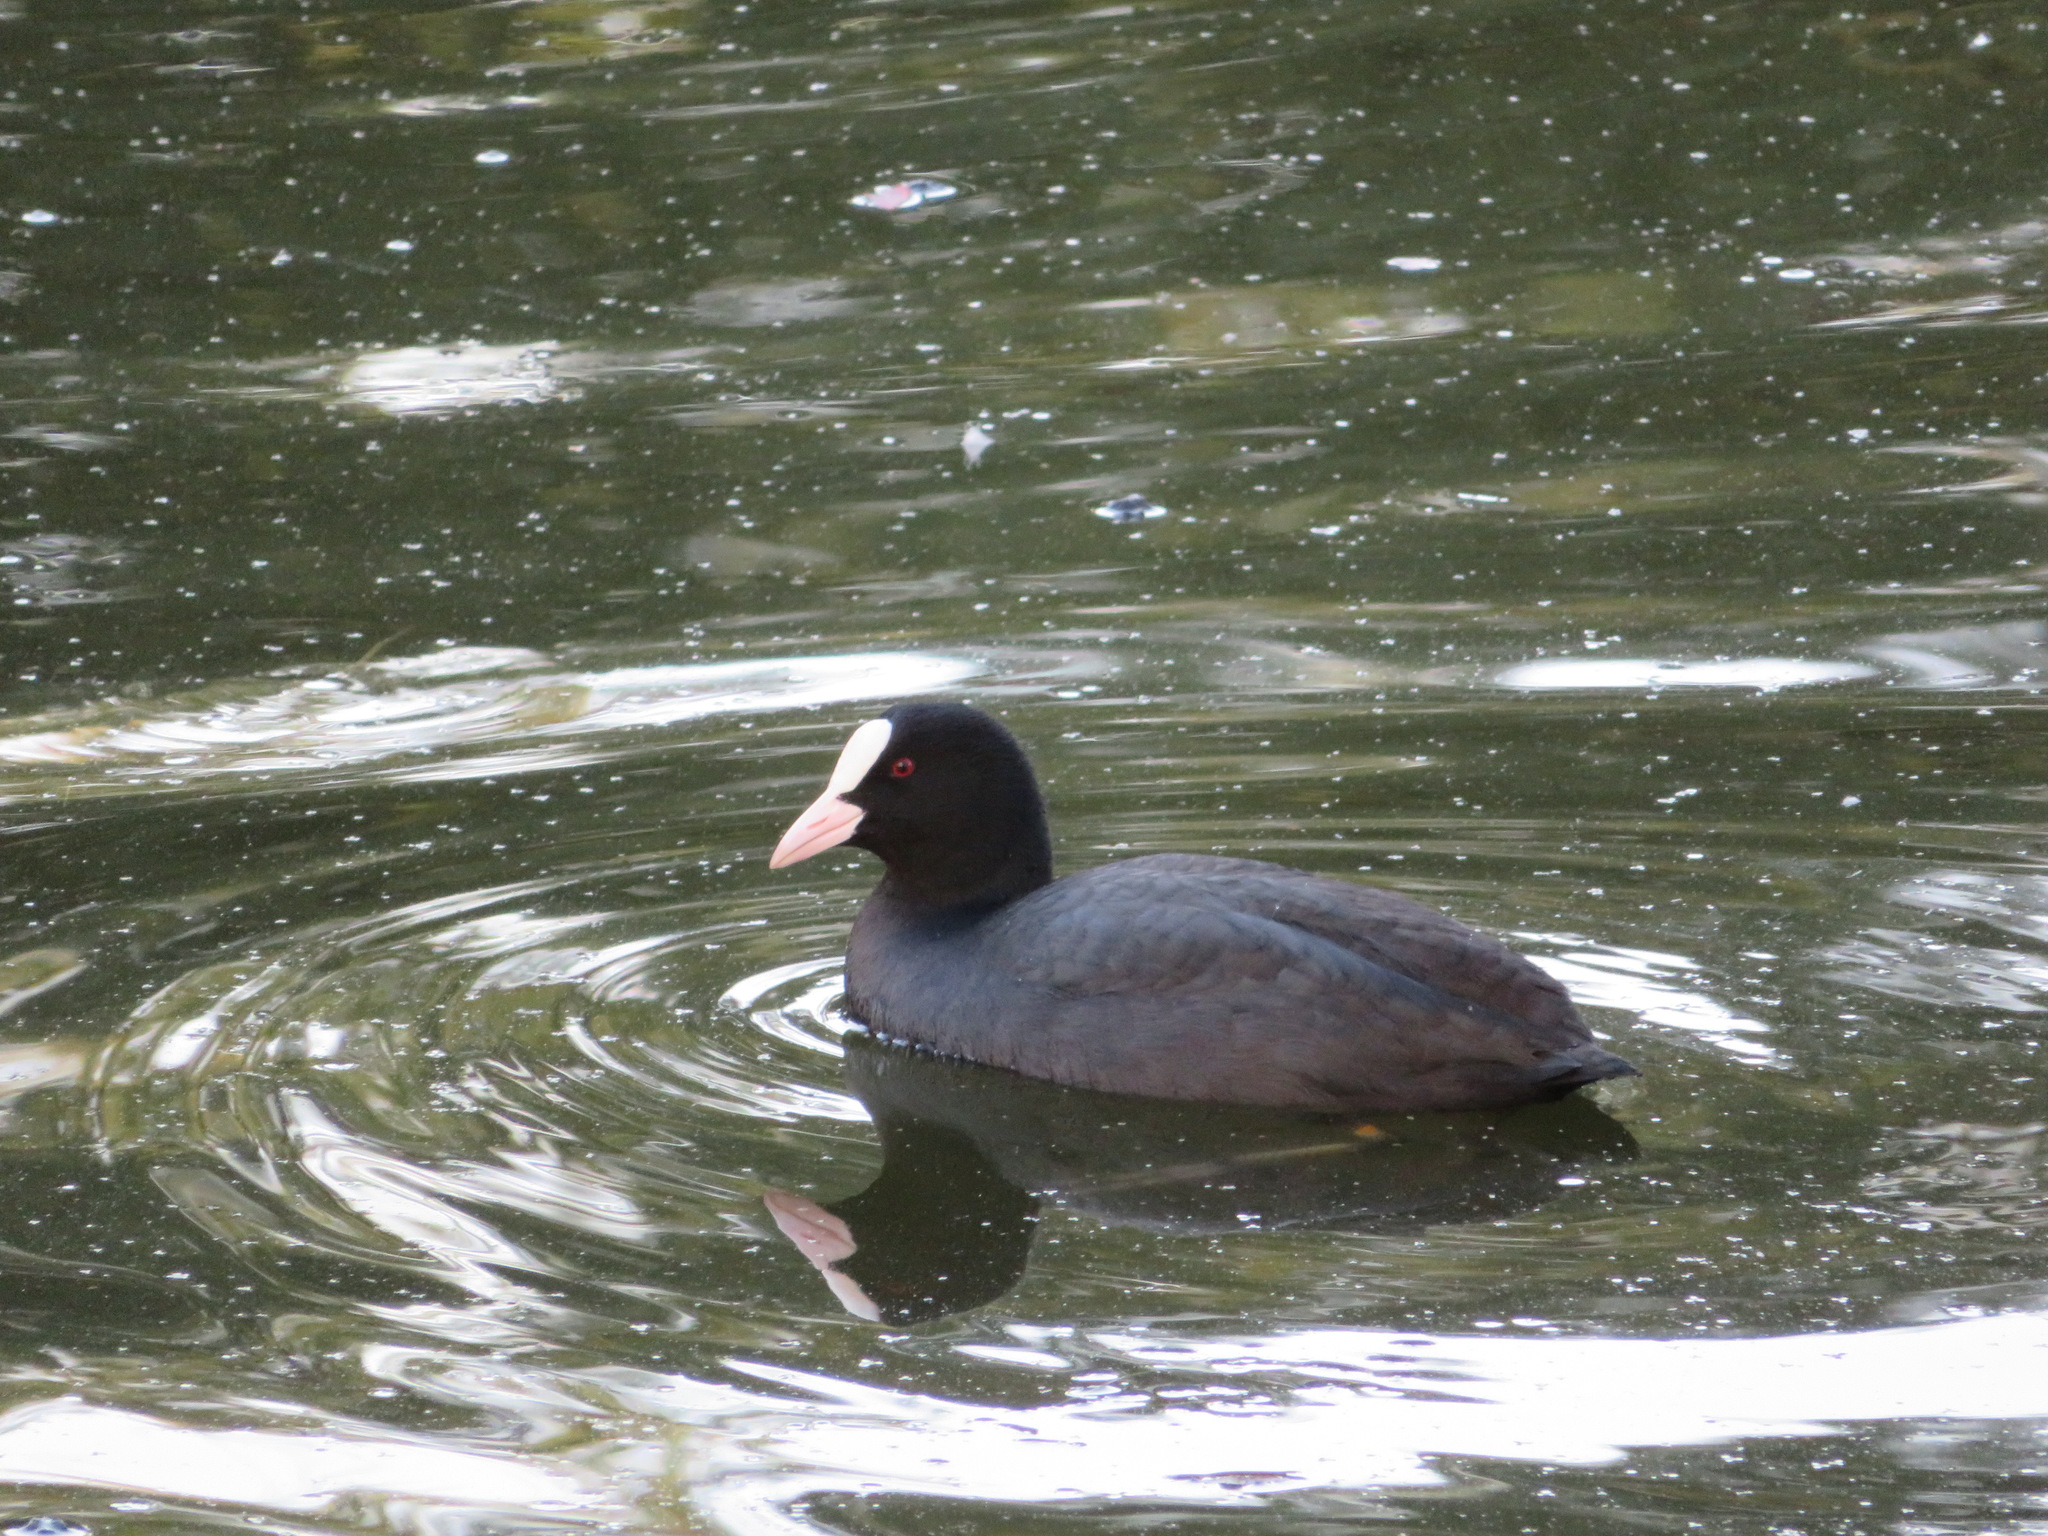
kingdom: Animalia
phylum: Chordata
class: Aves
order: Gruiformes
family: Rallidae
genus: Fulica
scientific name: Fulica atra
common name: Eurasian coot
